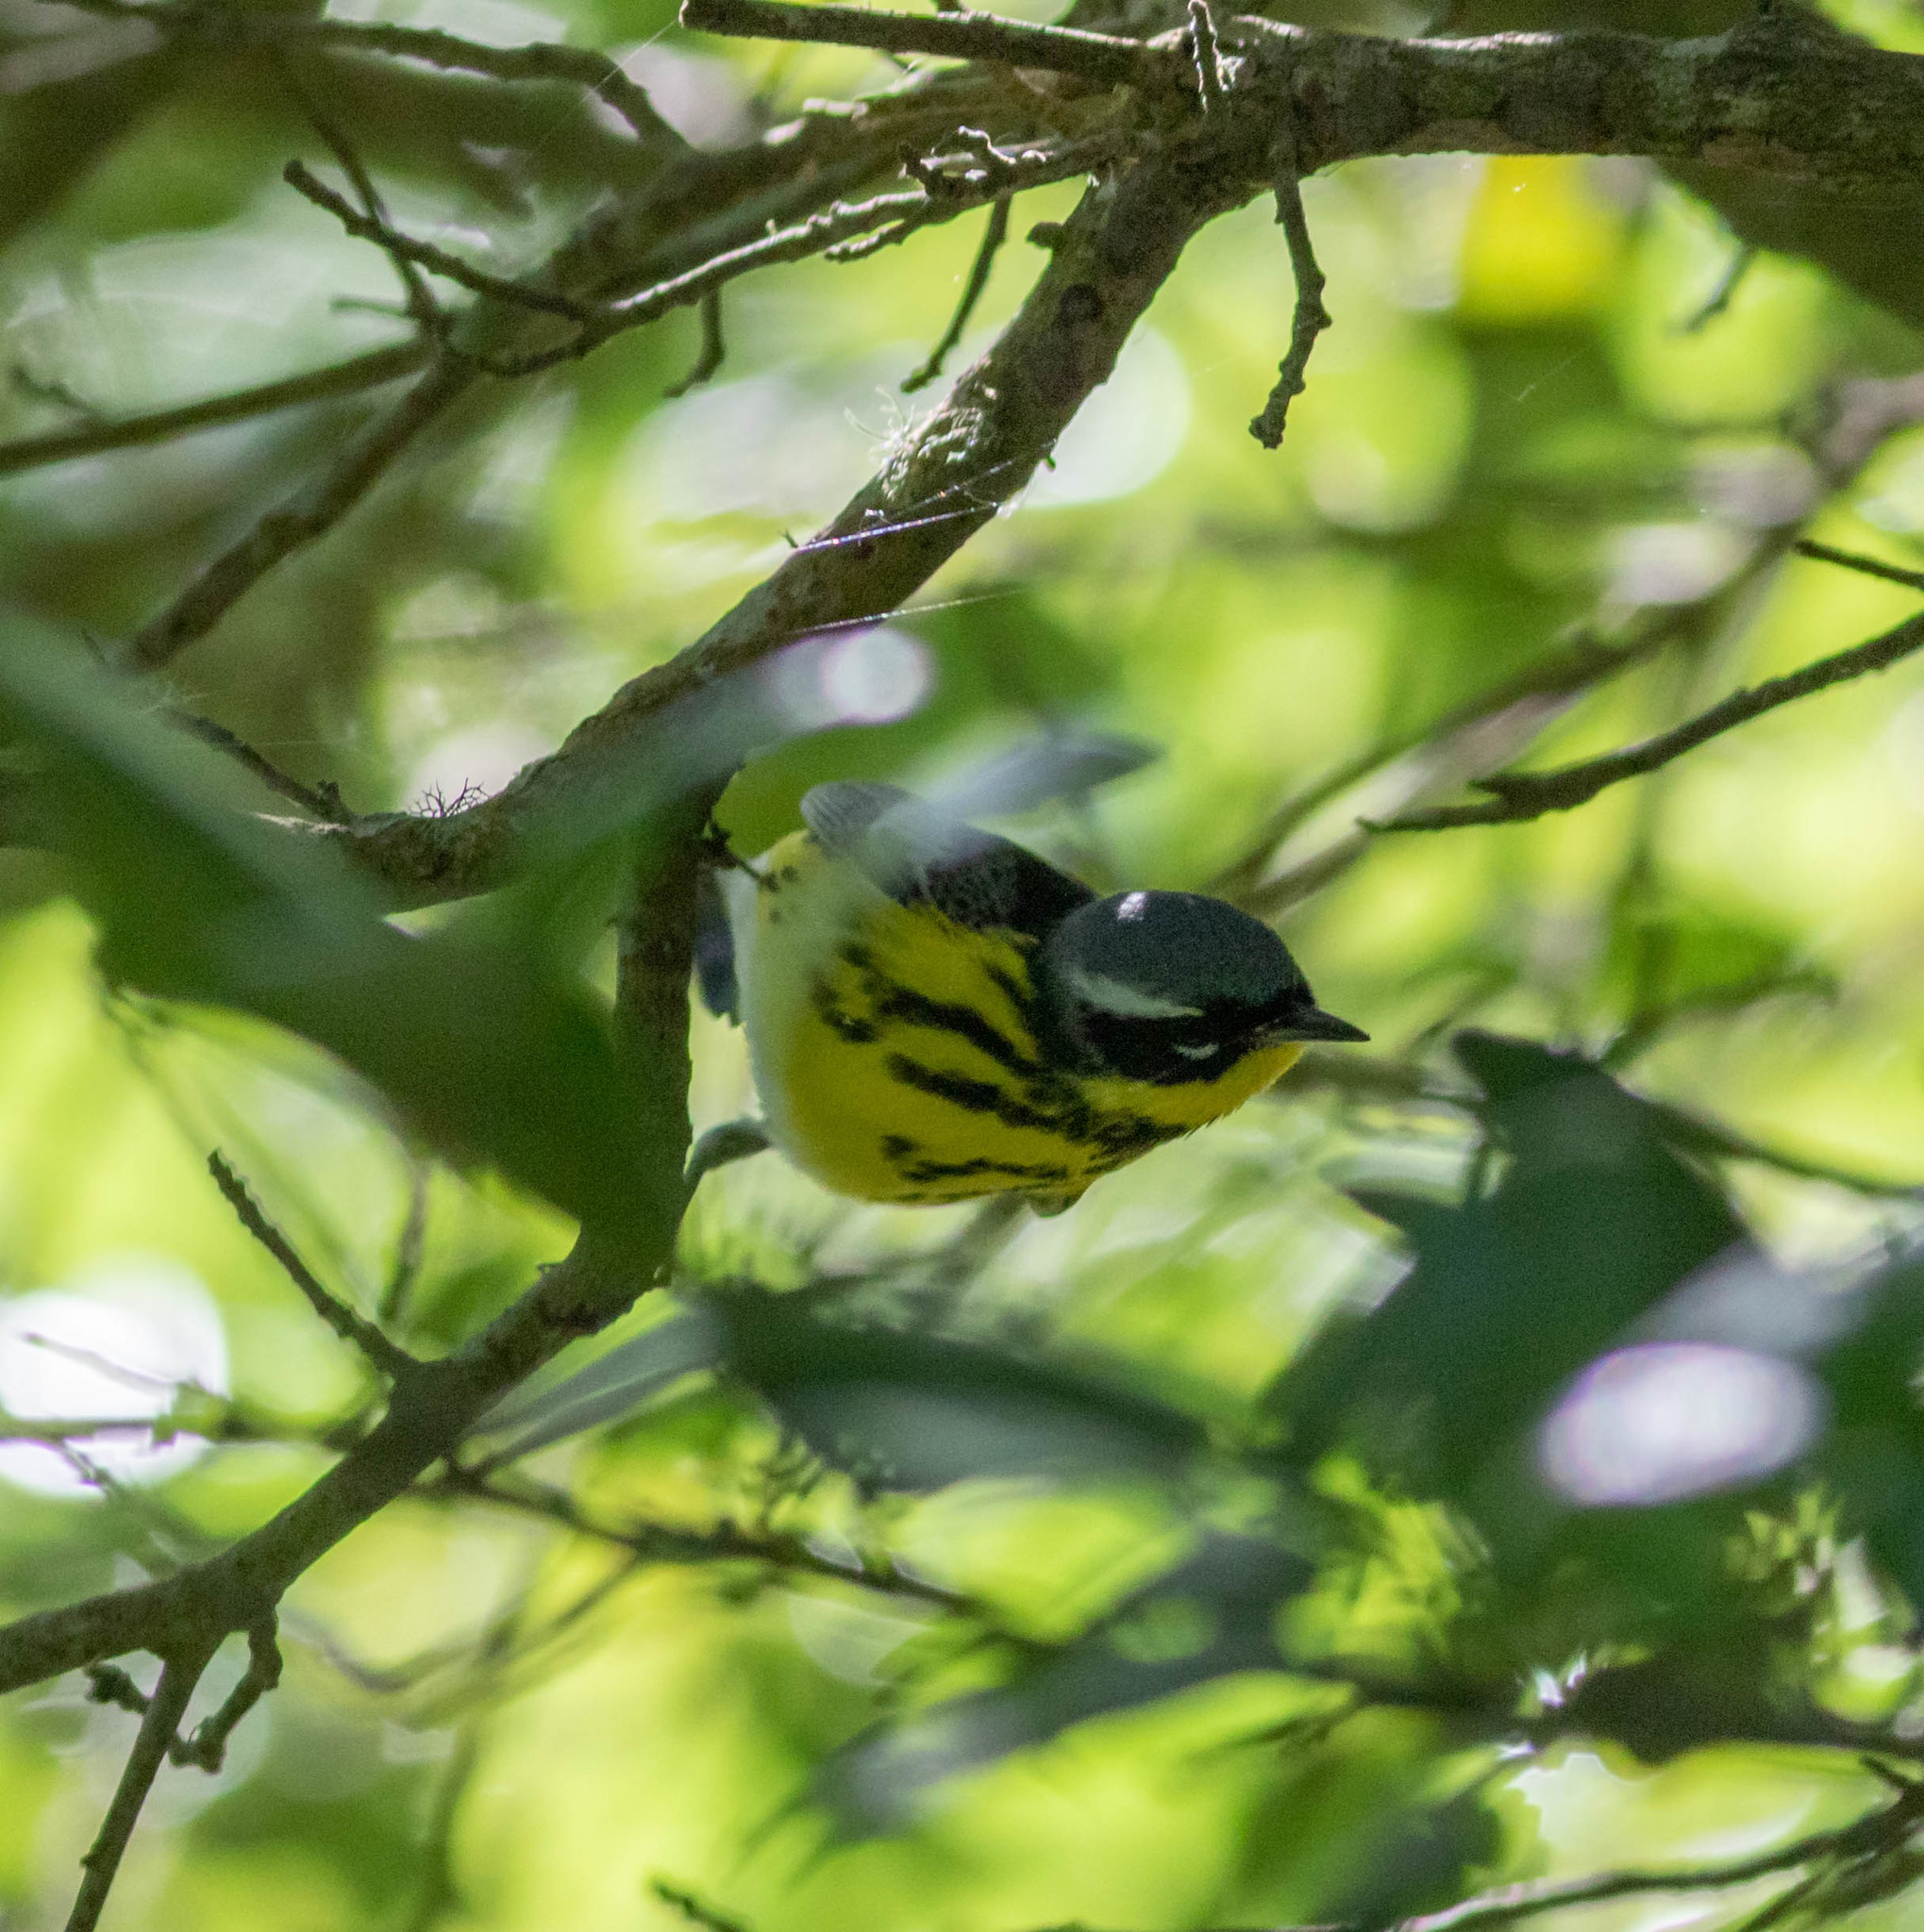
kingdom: Animalia
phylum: Chordata
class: Aves
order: Passeriformes
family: Parulidae
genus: Setophaga
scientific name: Setophaga magnolia
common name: Magnolia warbler
